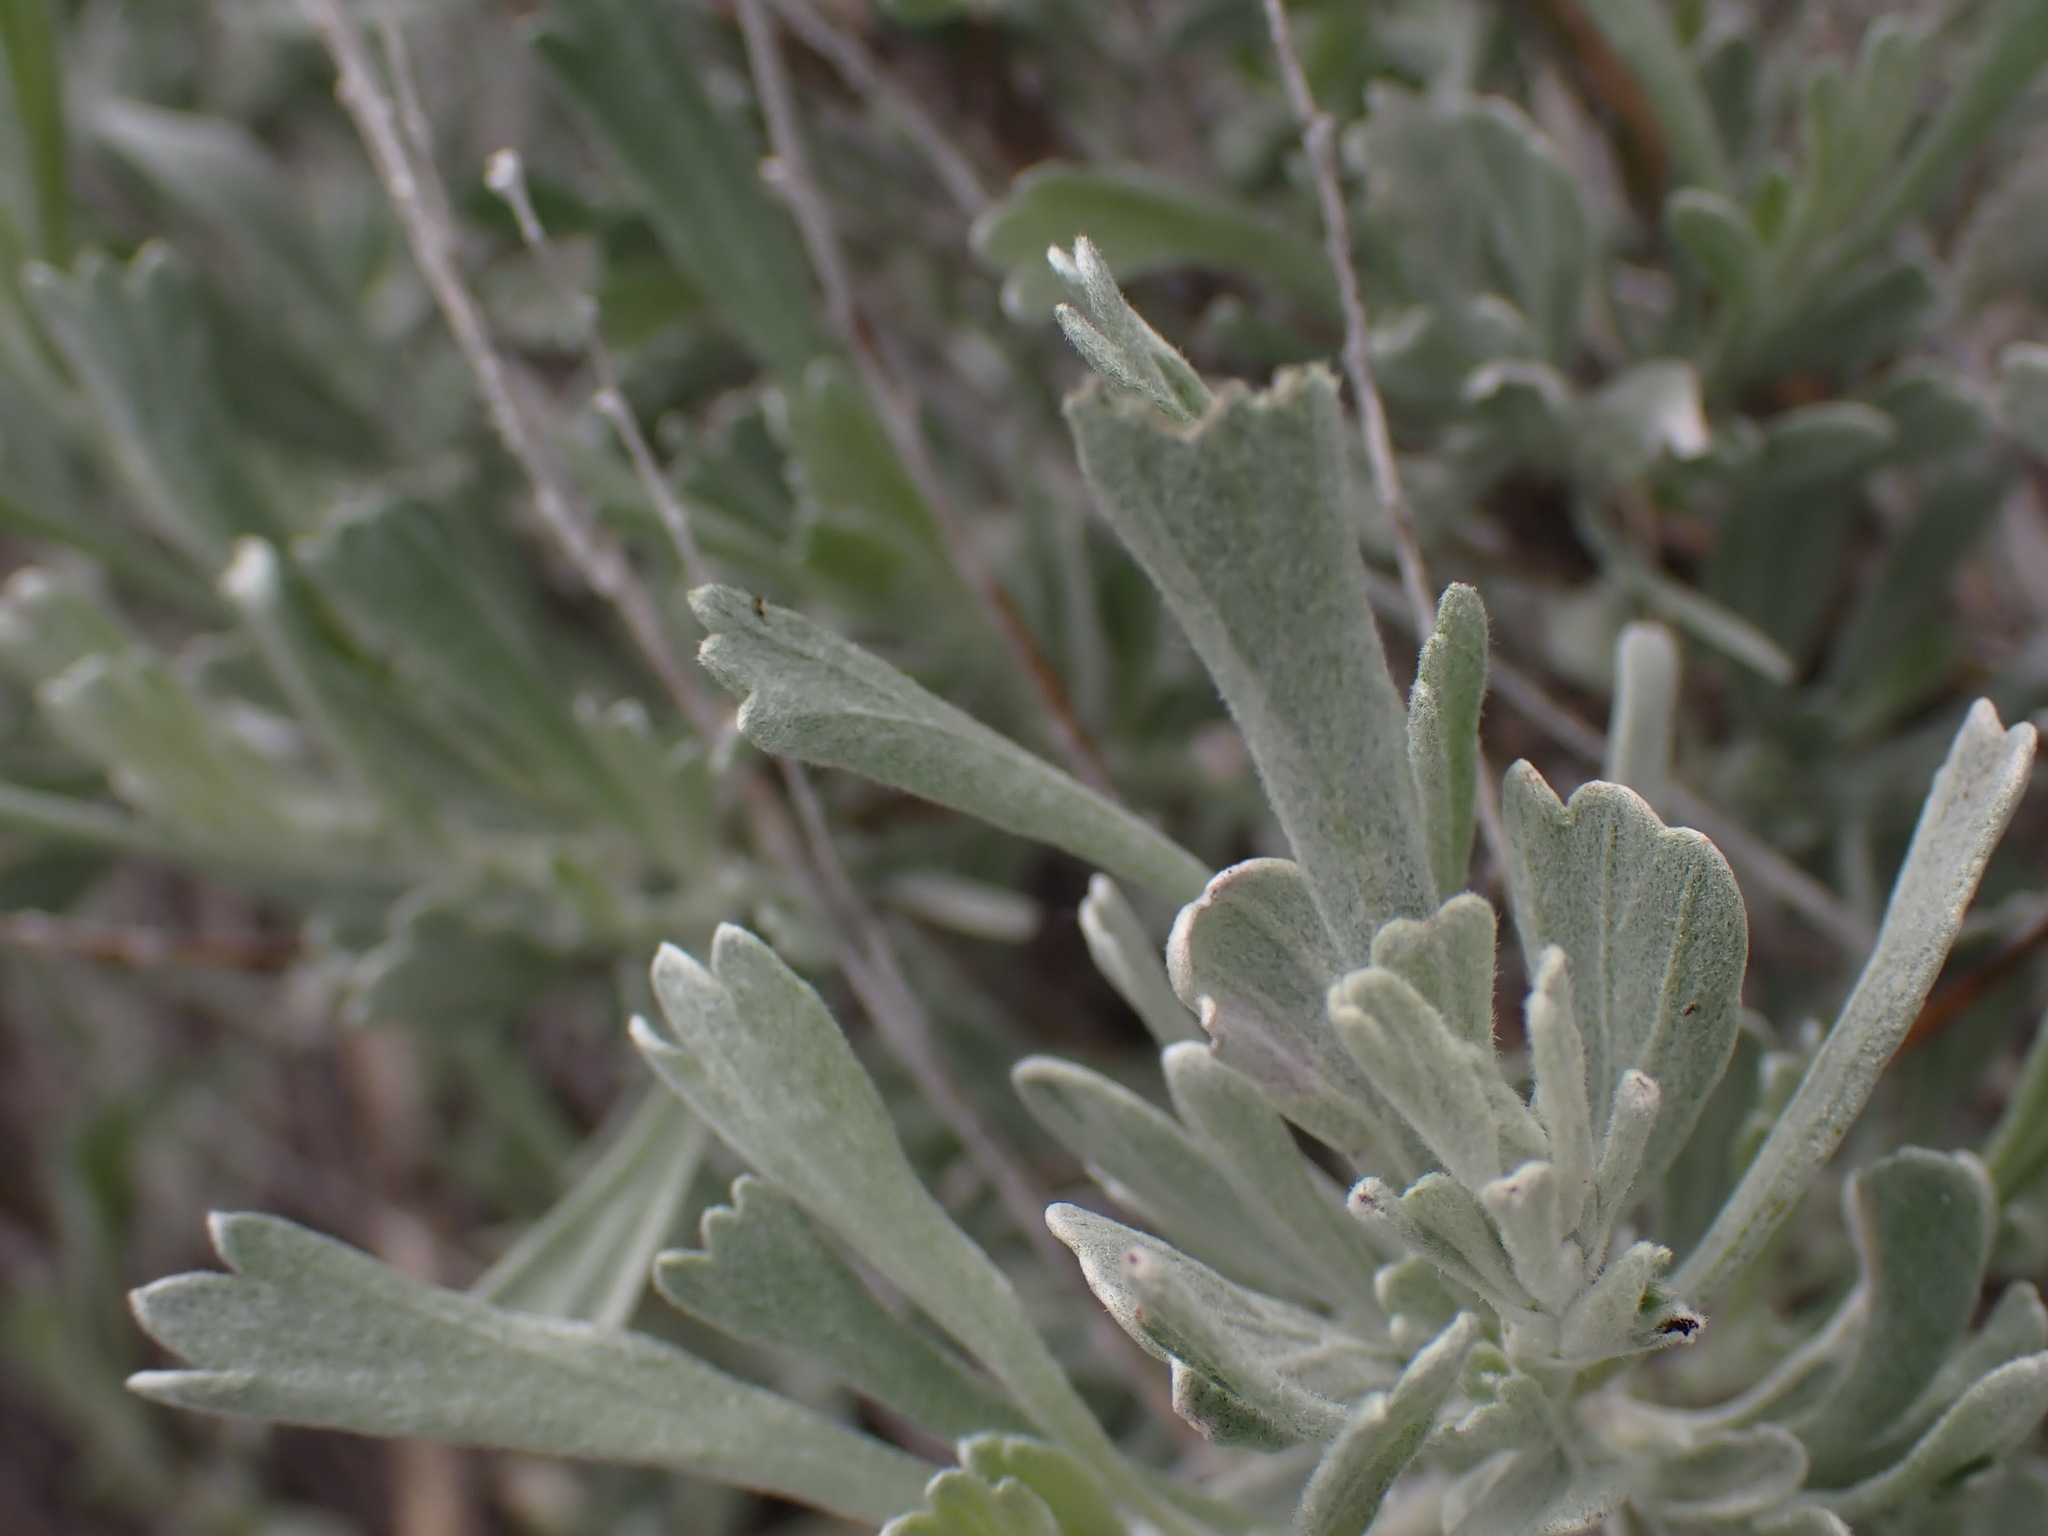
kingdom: Plantae
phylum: Tracheophyta
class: Magnoliopsida
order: Asterales
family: Asteraceae
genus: Artemisia
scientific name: Artemisia tridentata
